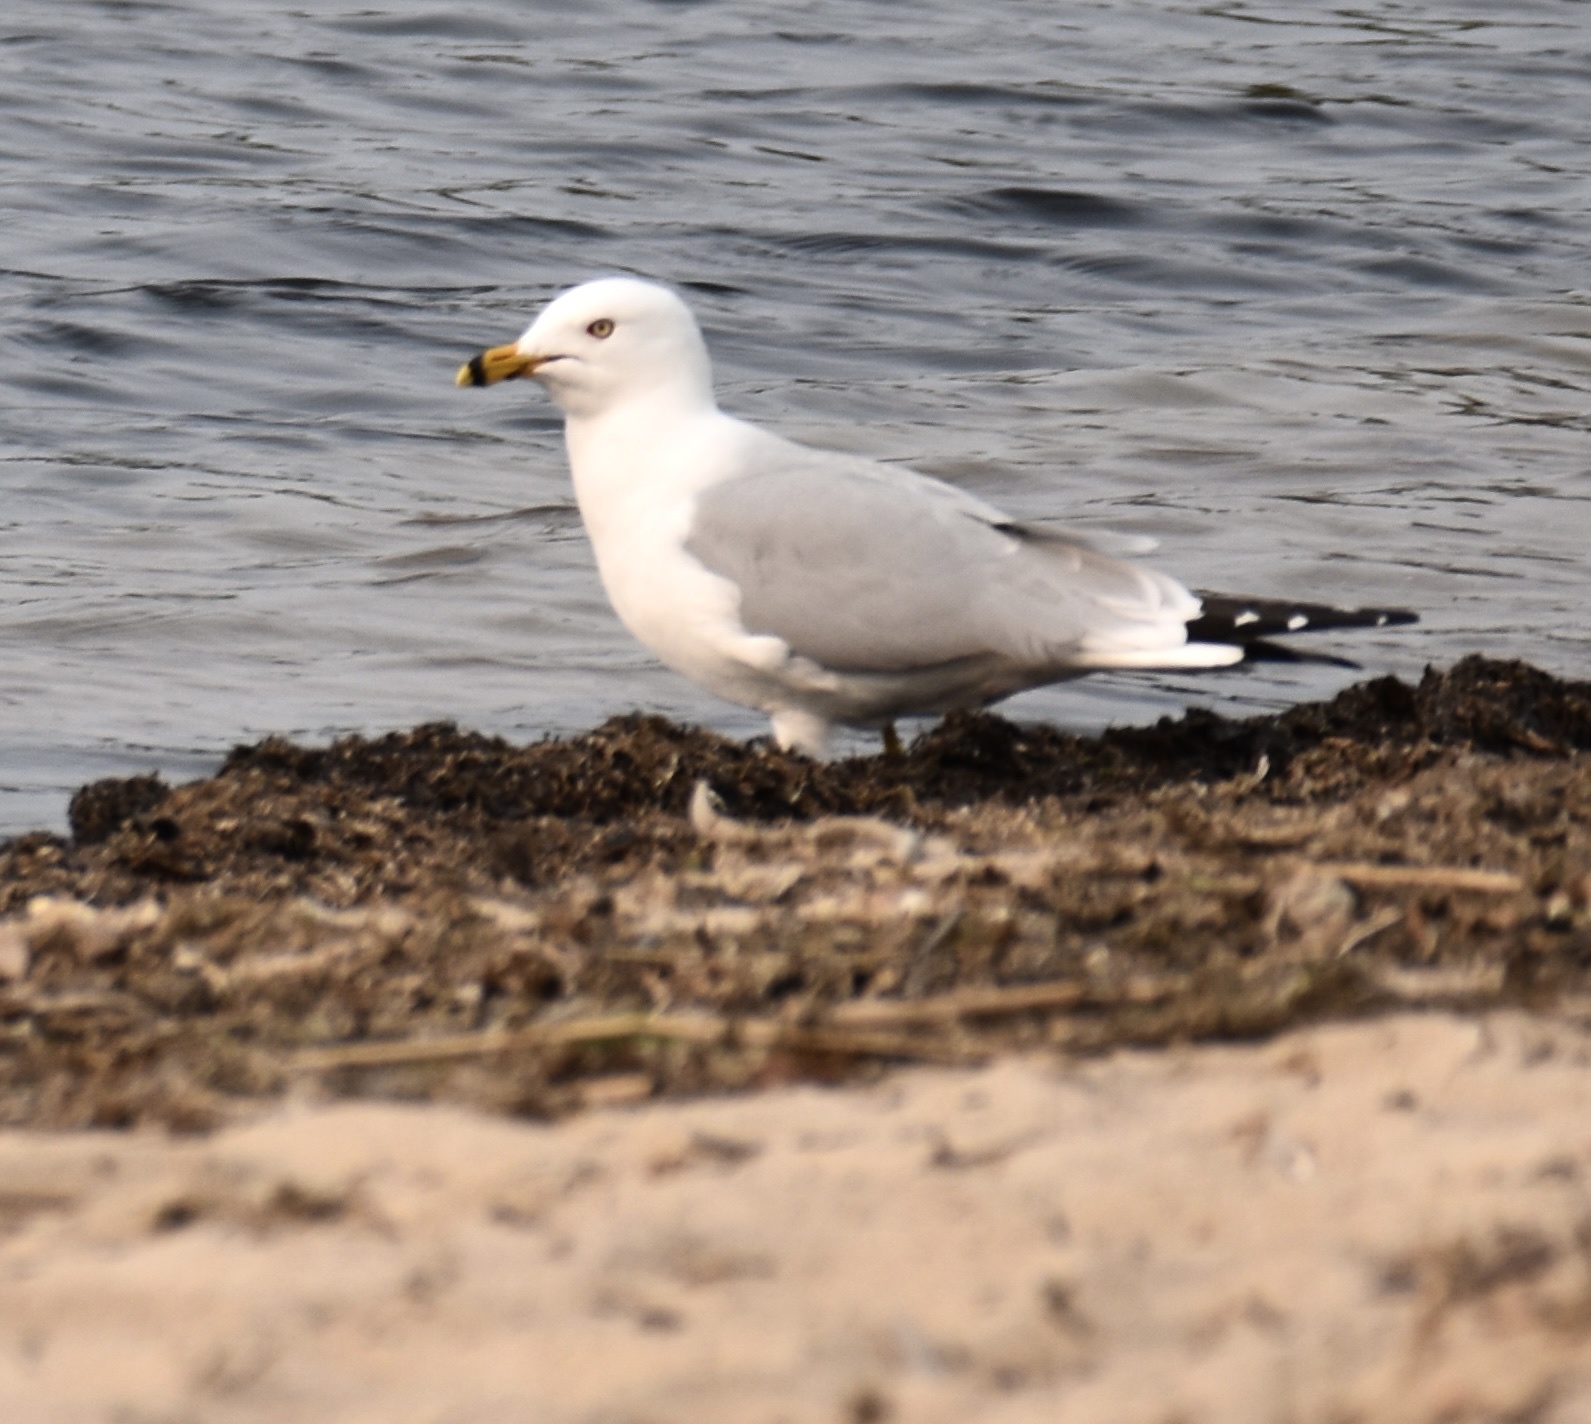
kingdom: Animalia
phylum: Chordata
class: Aves
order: Charadriiformes
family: Laridae
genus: Larus
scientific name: Larus delawarensis
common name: Ring-billed gull
